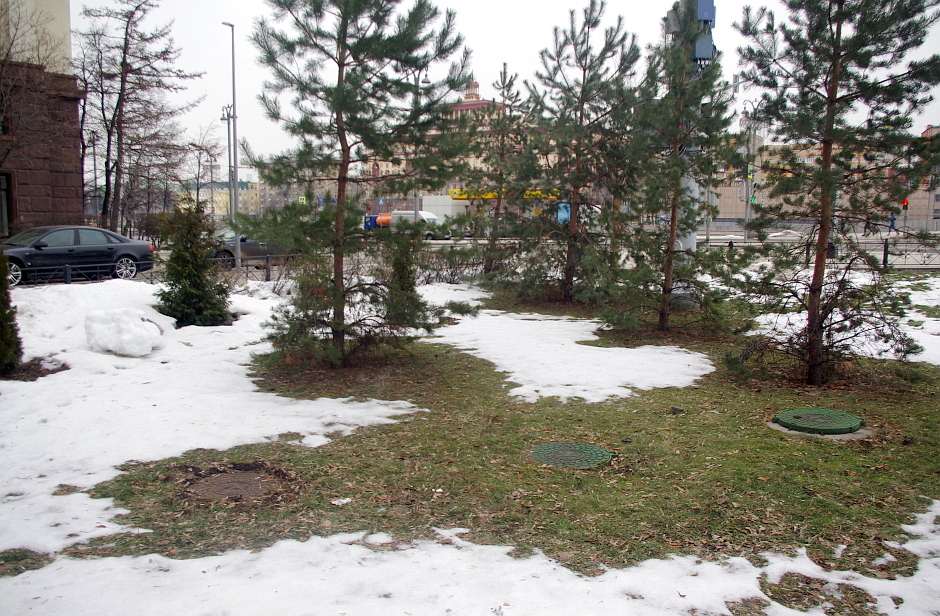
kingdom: Plantae
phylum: Tracheophyta
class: Magnoliopsida
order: Asterales
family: Asteraceae
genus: Taraxacum
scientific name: Taraxacum officinale
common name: Common dandelion
